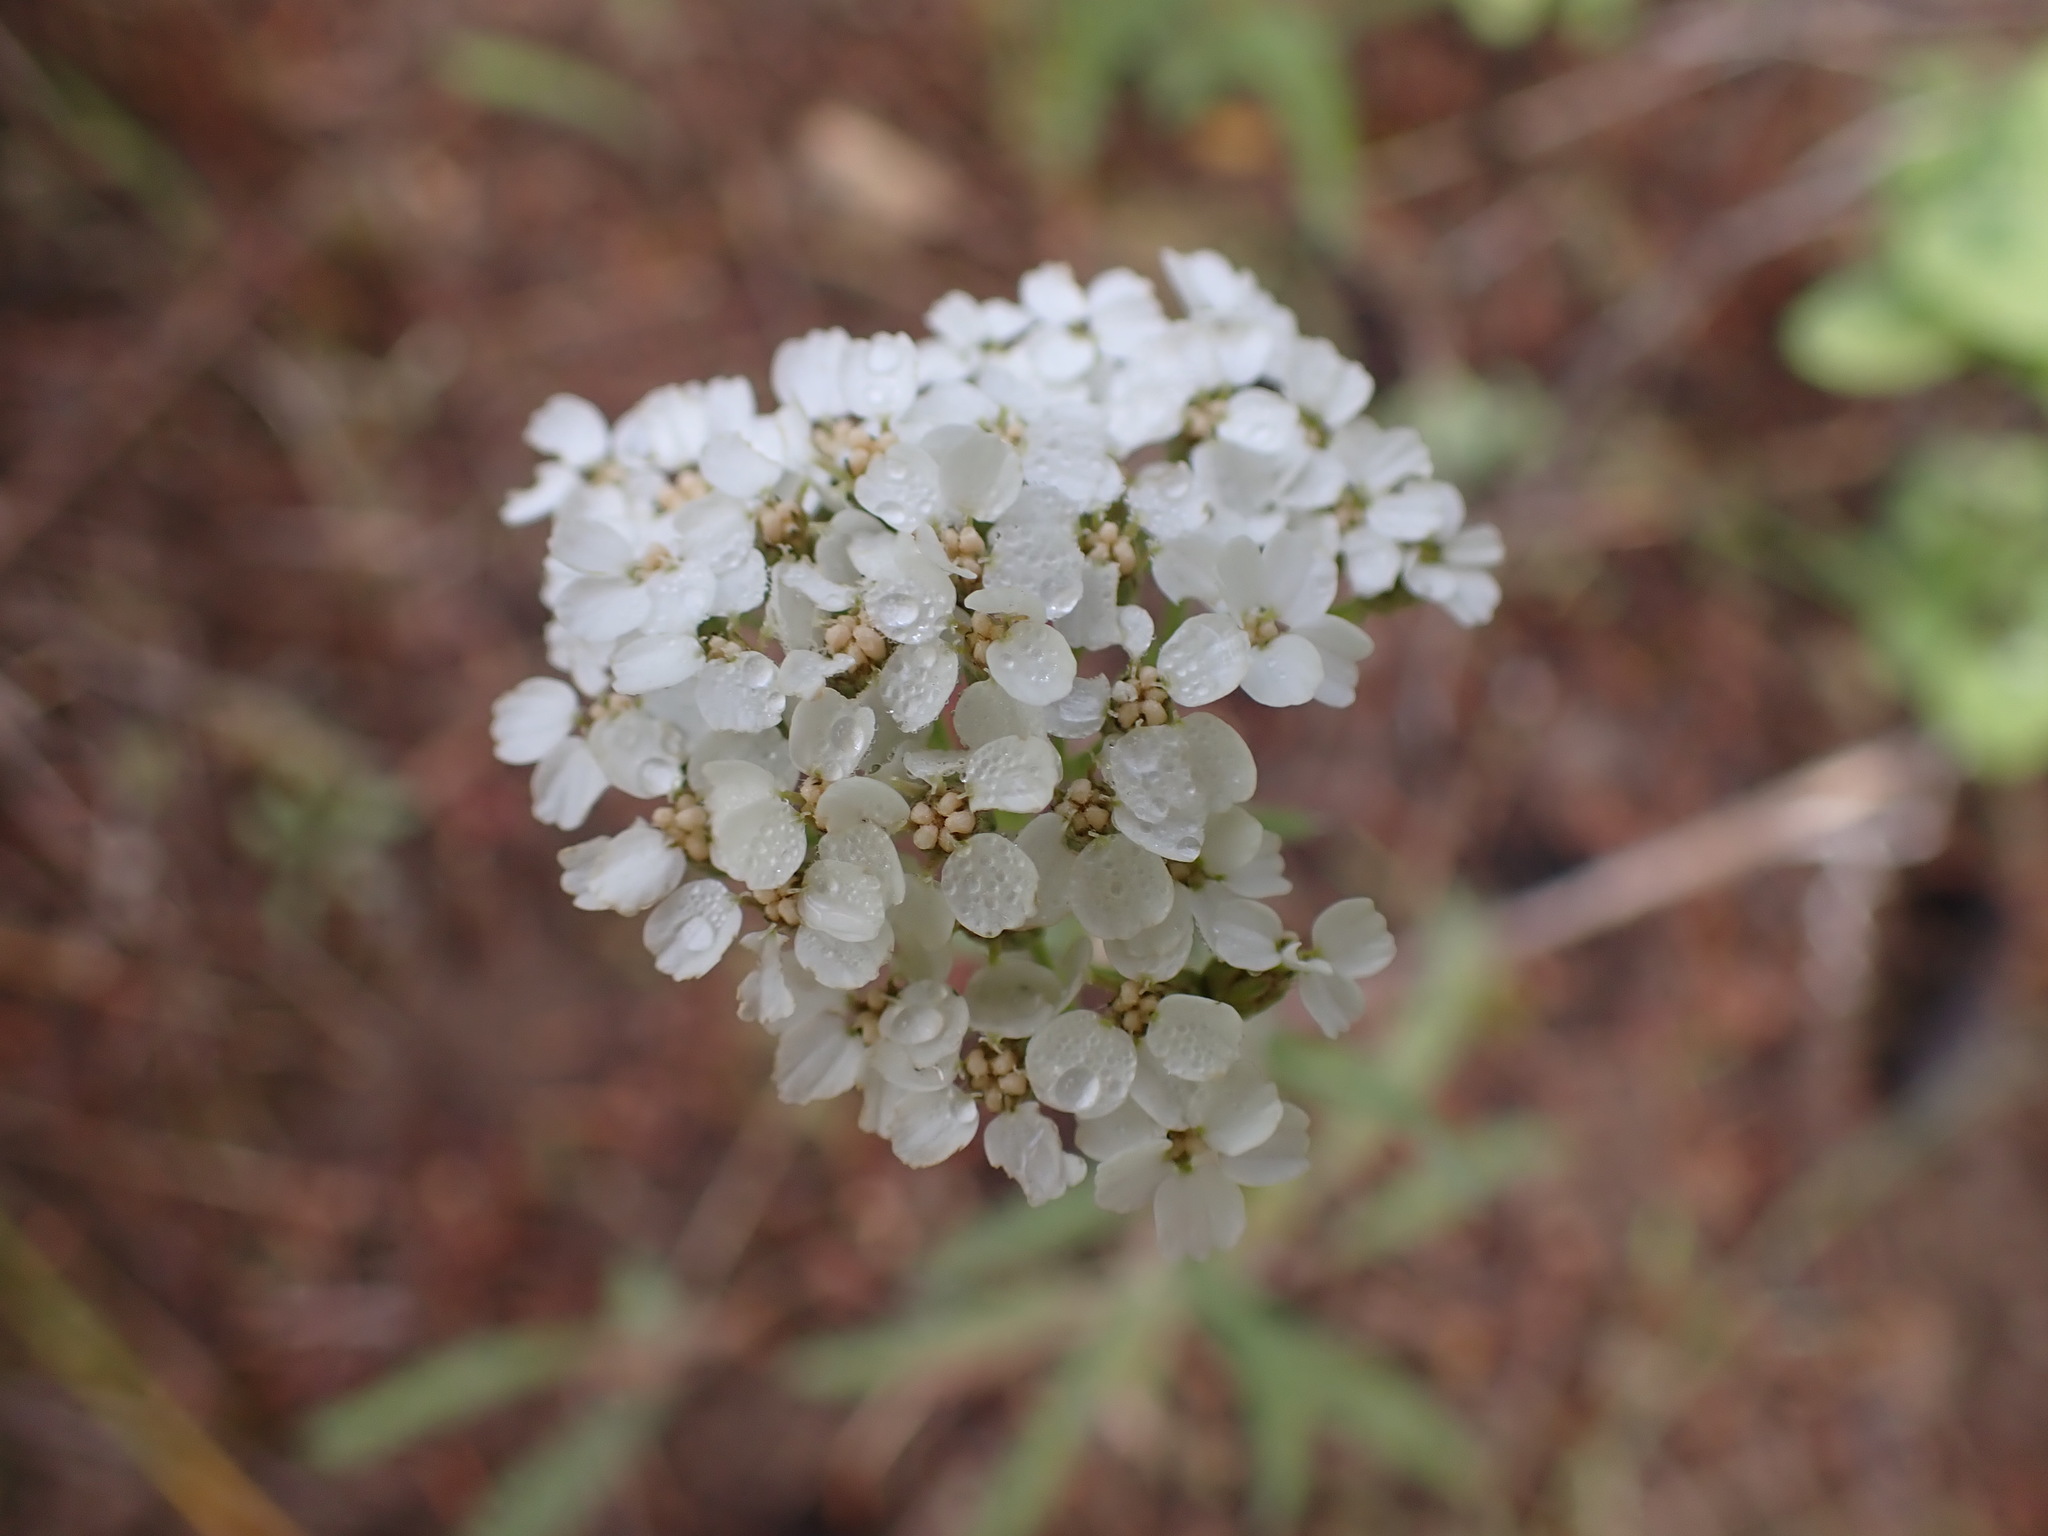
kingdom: Plantae
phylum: Tracheophyta
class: Magnoliopsida
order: Asterales
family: Asteraceae
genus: Achillea
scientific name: Achillea millefolium
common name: Yarrow
